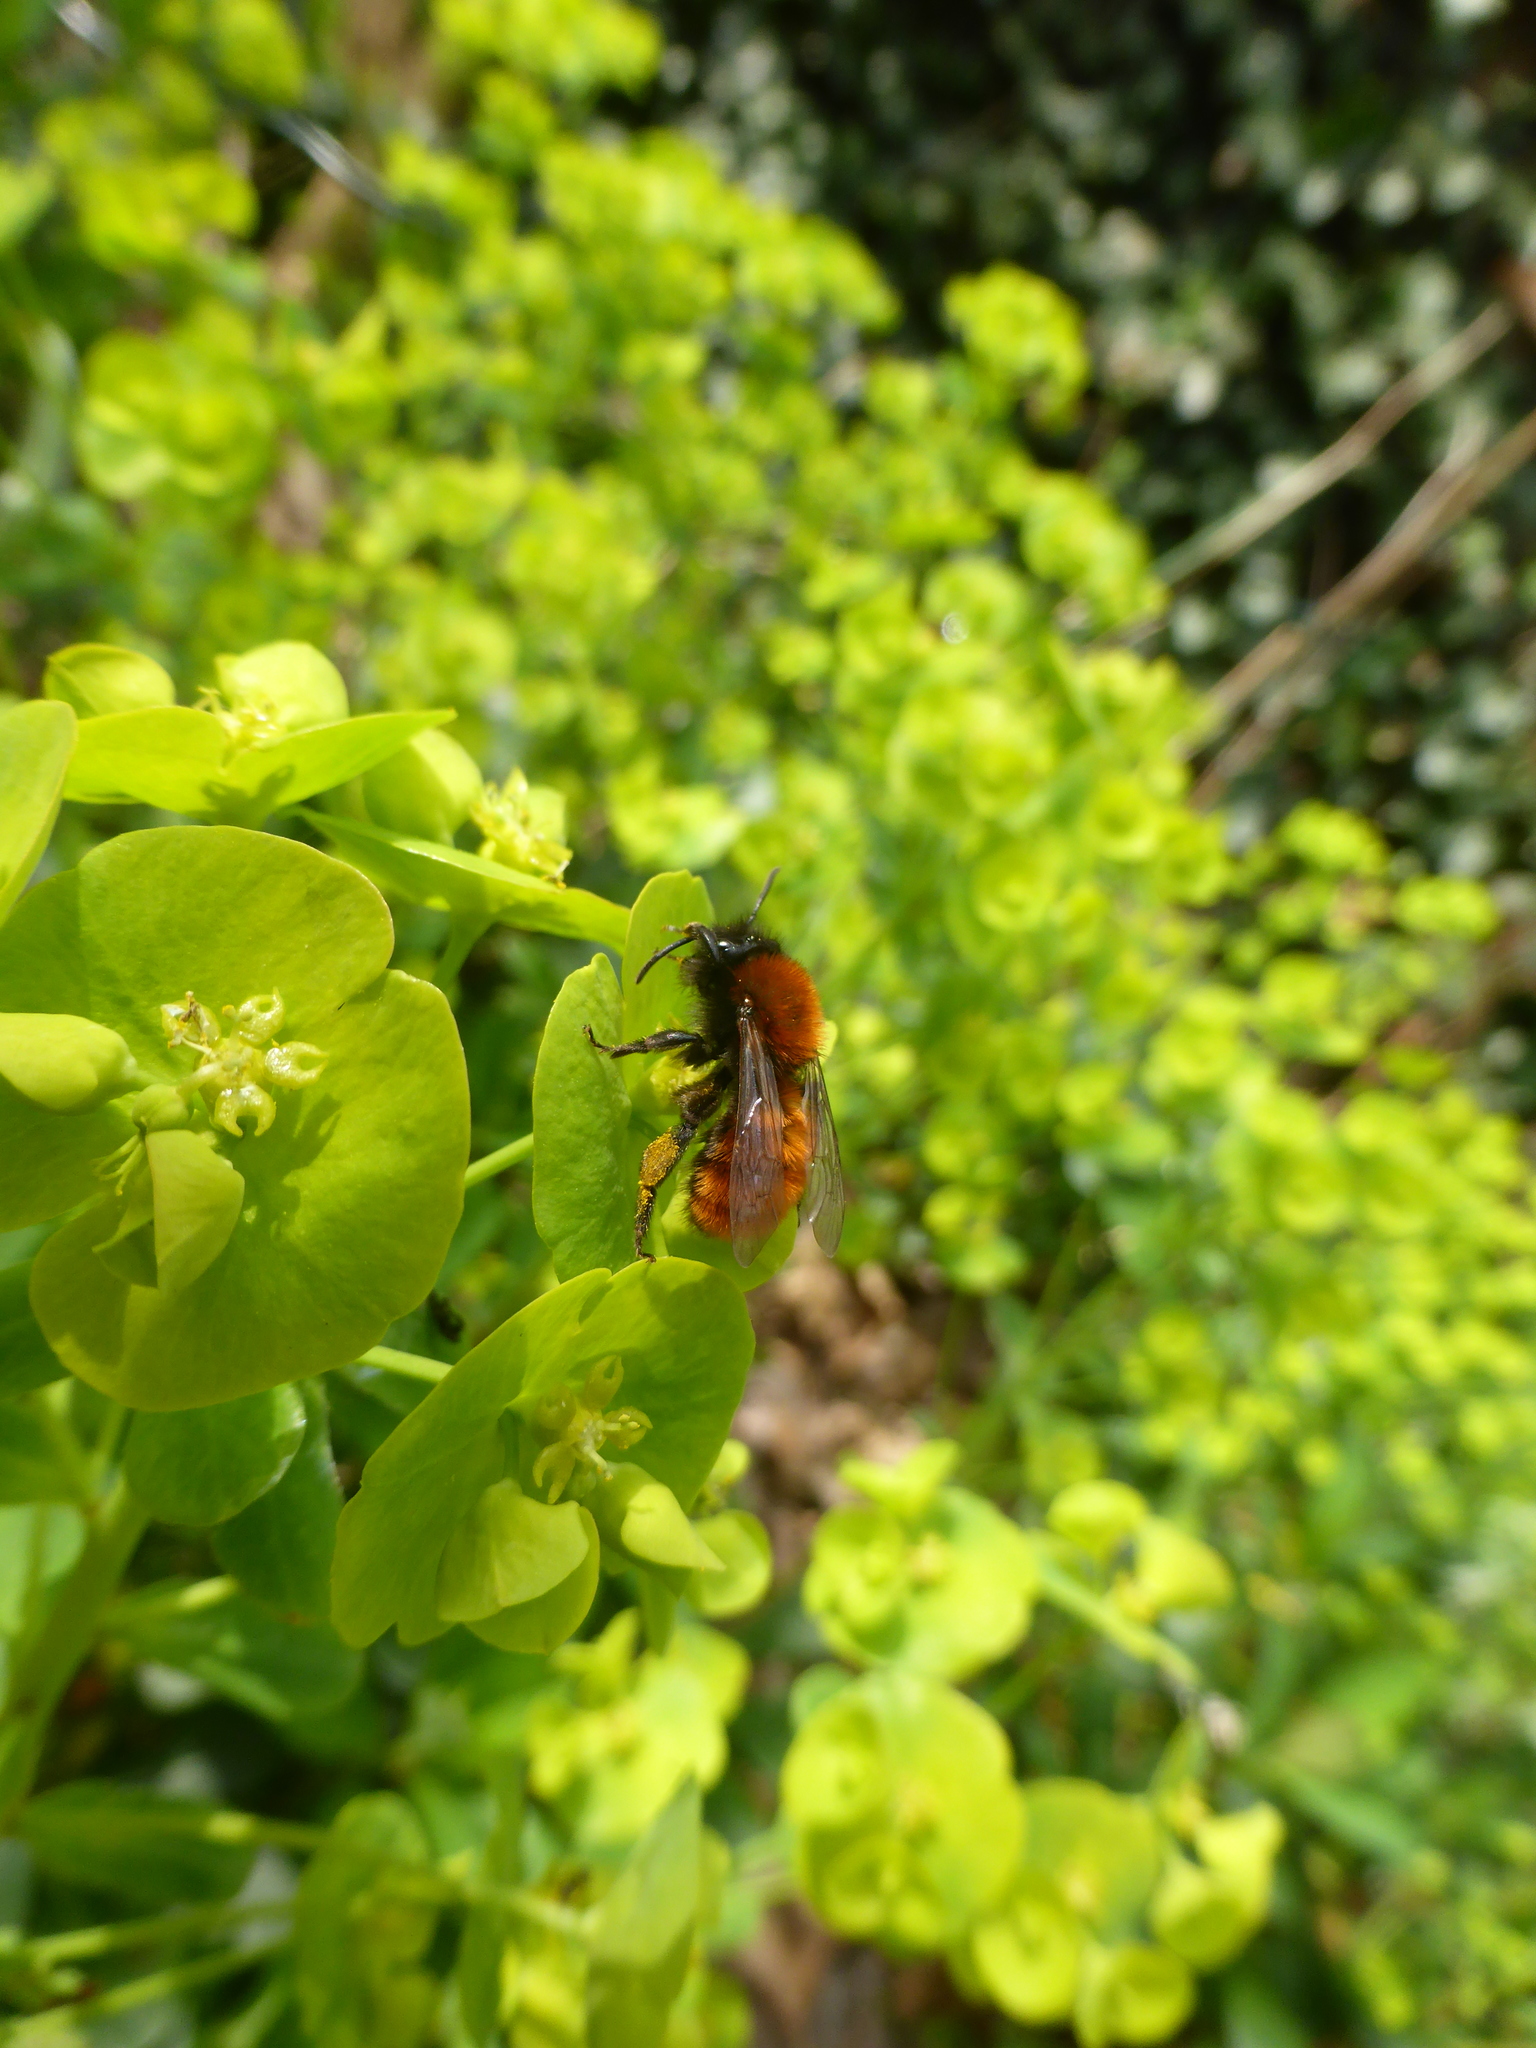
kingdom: Animalia
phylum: Arthropoda
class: Insecta
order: Hymenoptera
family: Andrenidae
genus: Andrena
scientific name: Andrena fulva
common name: Tawny mining bee
